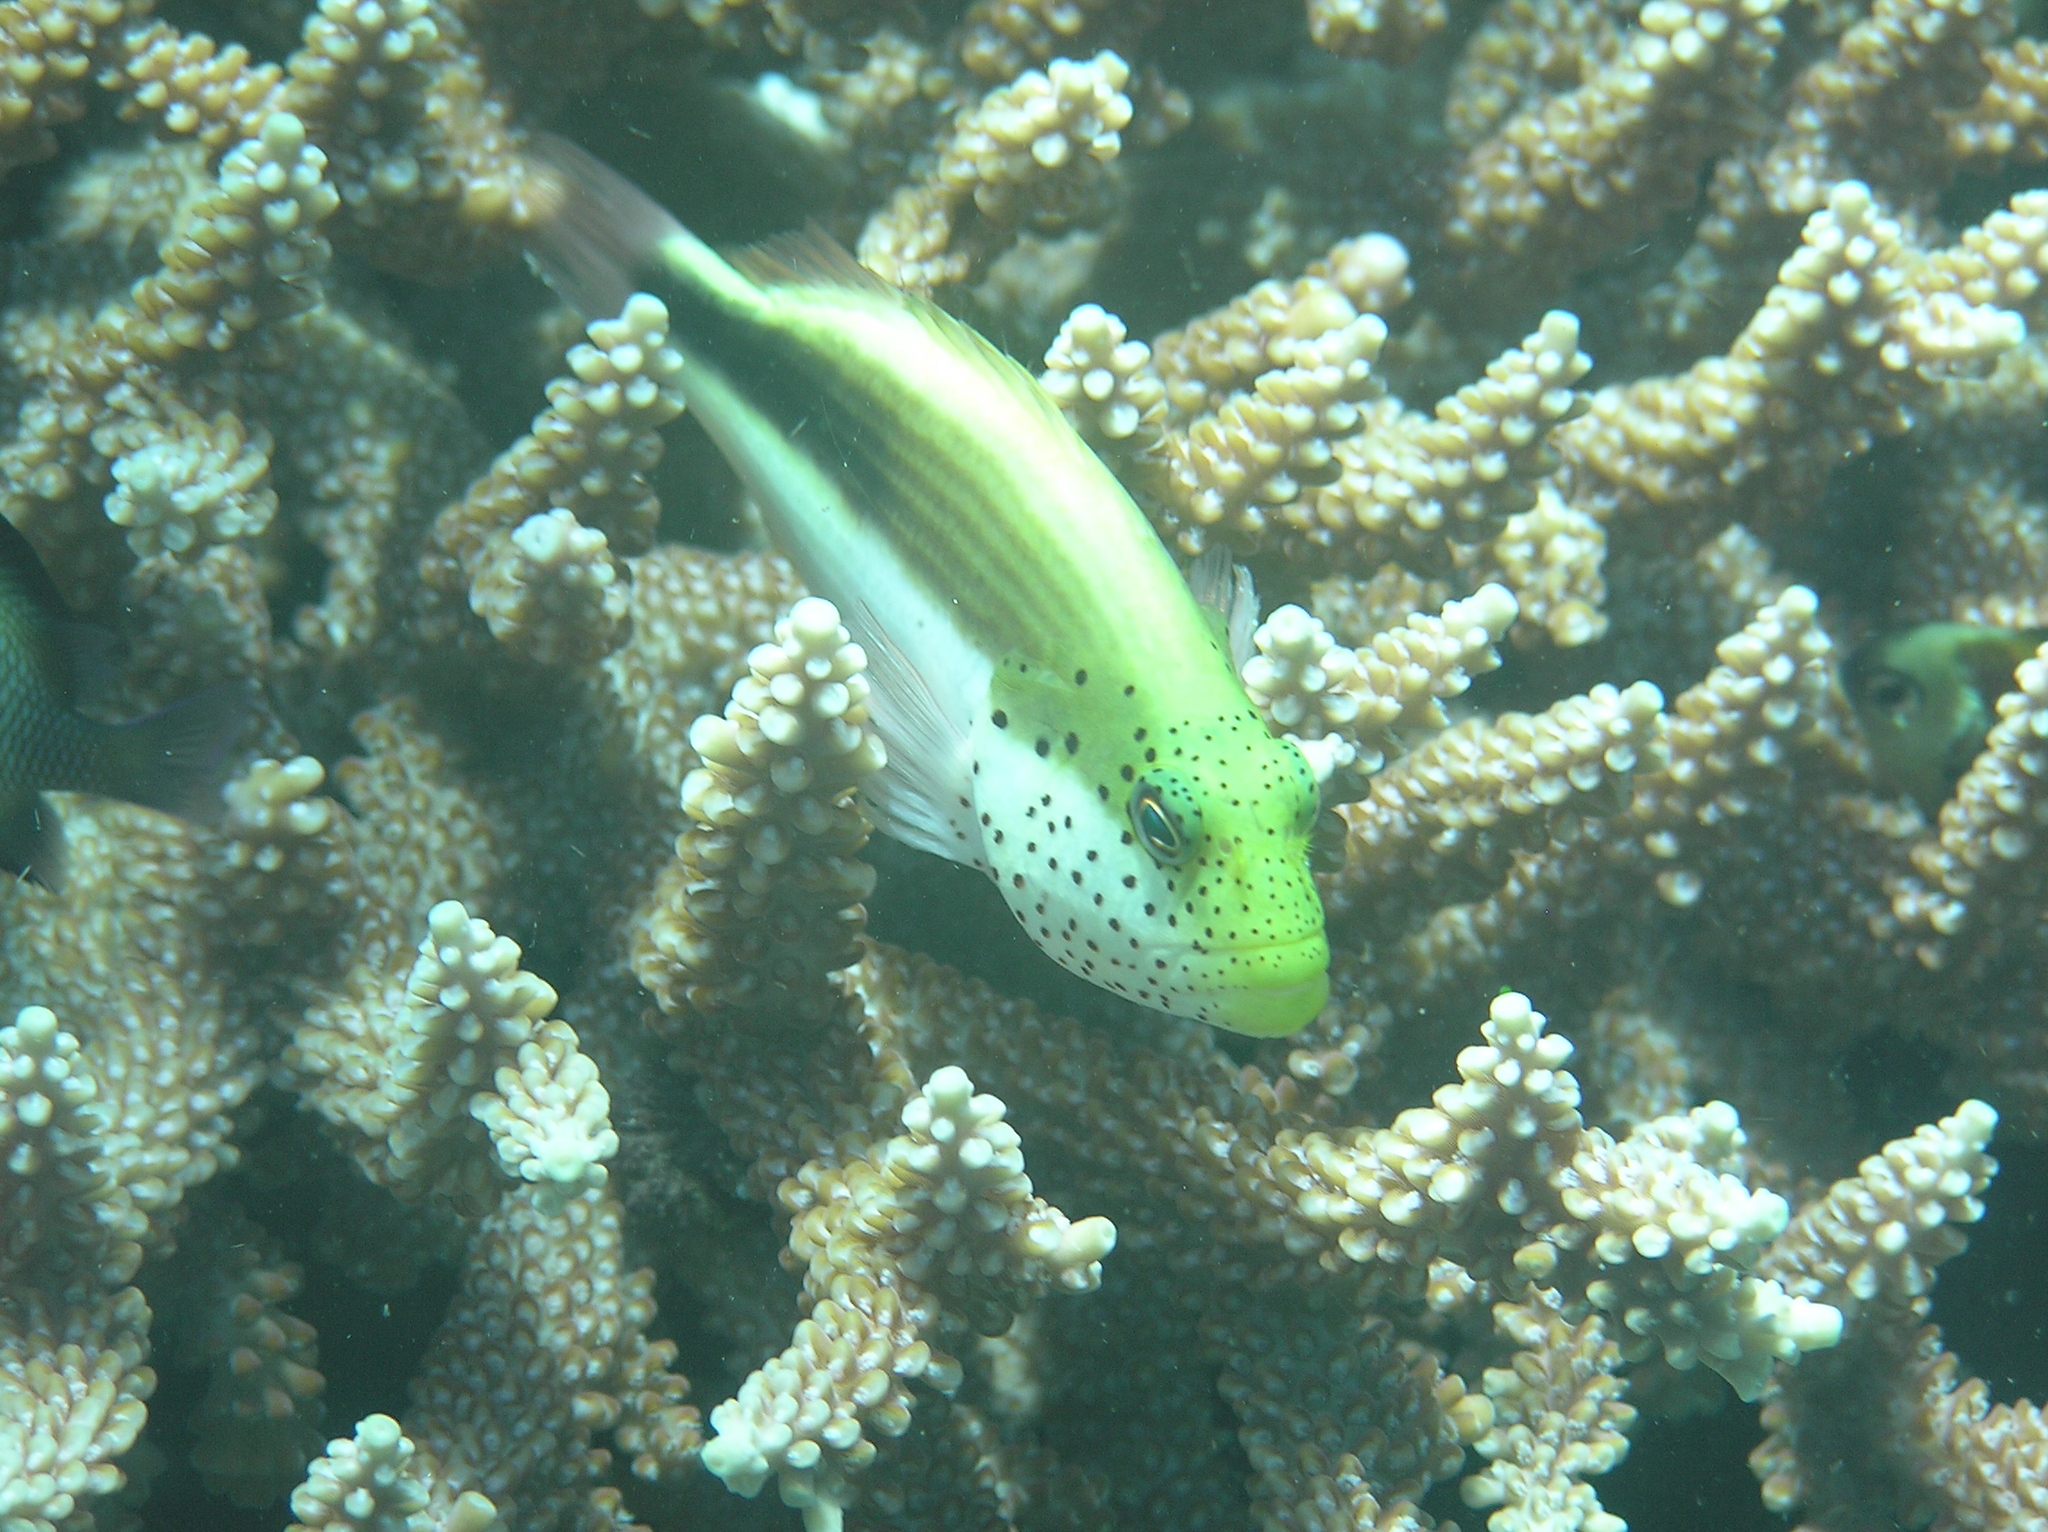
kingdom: Animalia
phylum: Chordata
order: Perciformes
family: Cirrhitidae
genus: Paracirrhites
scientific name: Paracirrhites forsteri
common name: Freckled hawkfish
